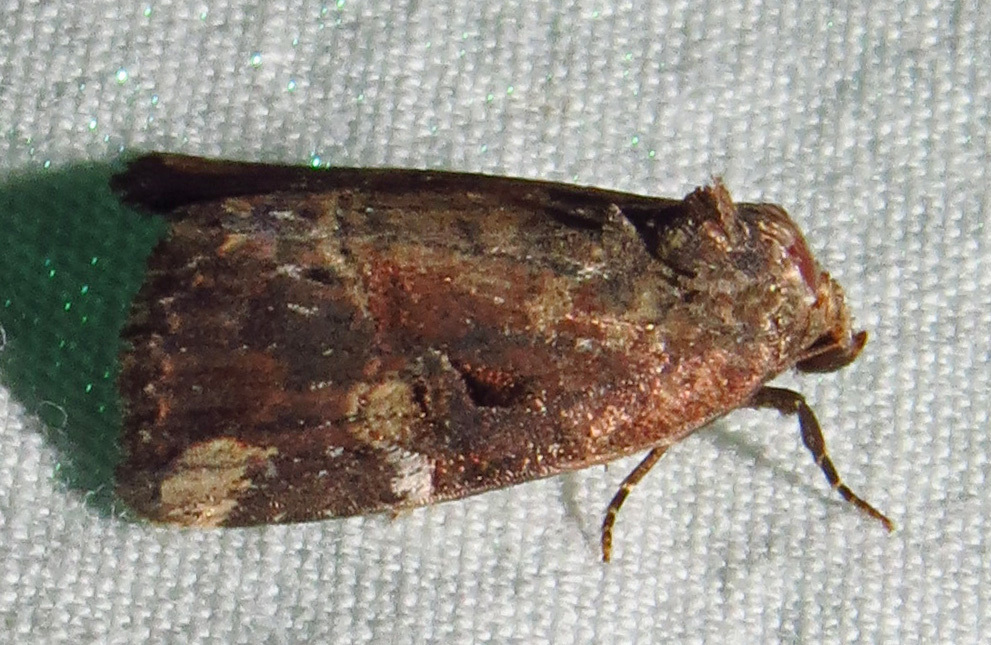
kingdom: Animalia
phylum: Arthropoda
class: Insecta
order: Lepidoptera
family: Noctuidae
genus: Elaphria
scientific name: Elaphria versicolor
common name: Fir harlequin
